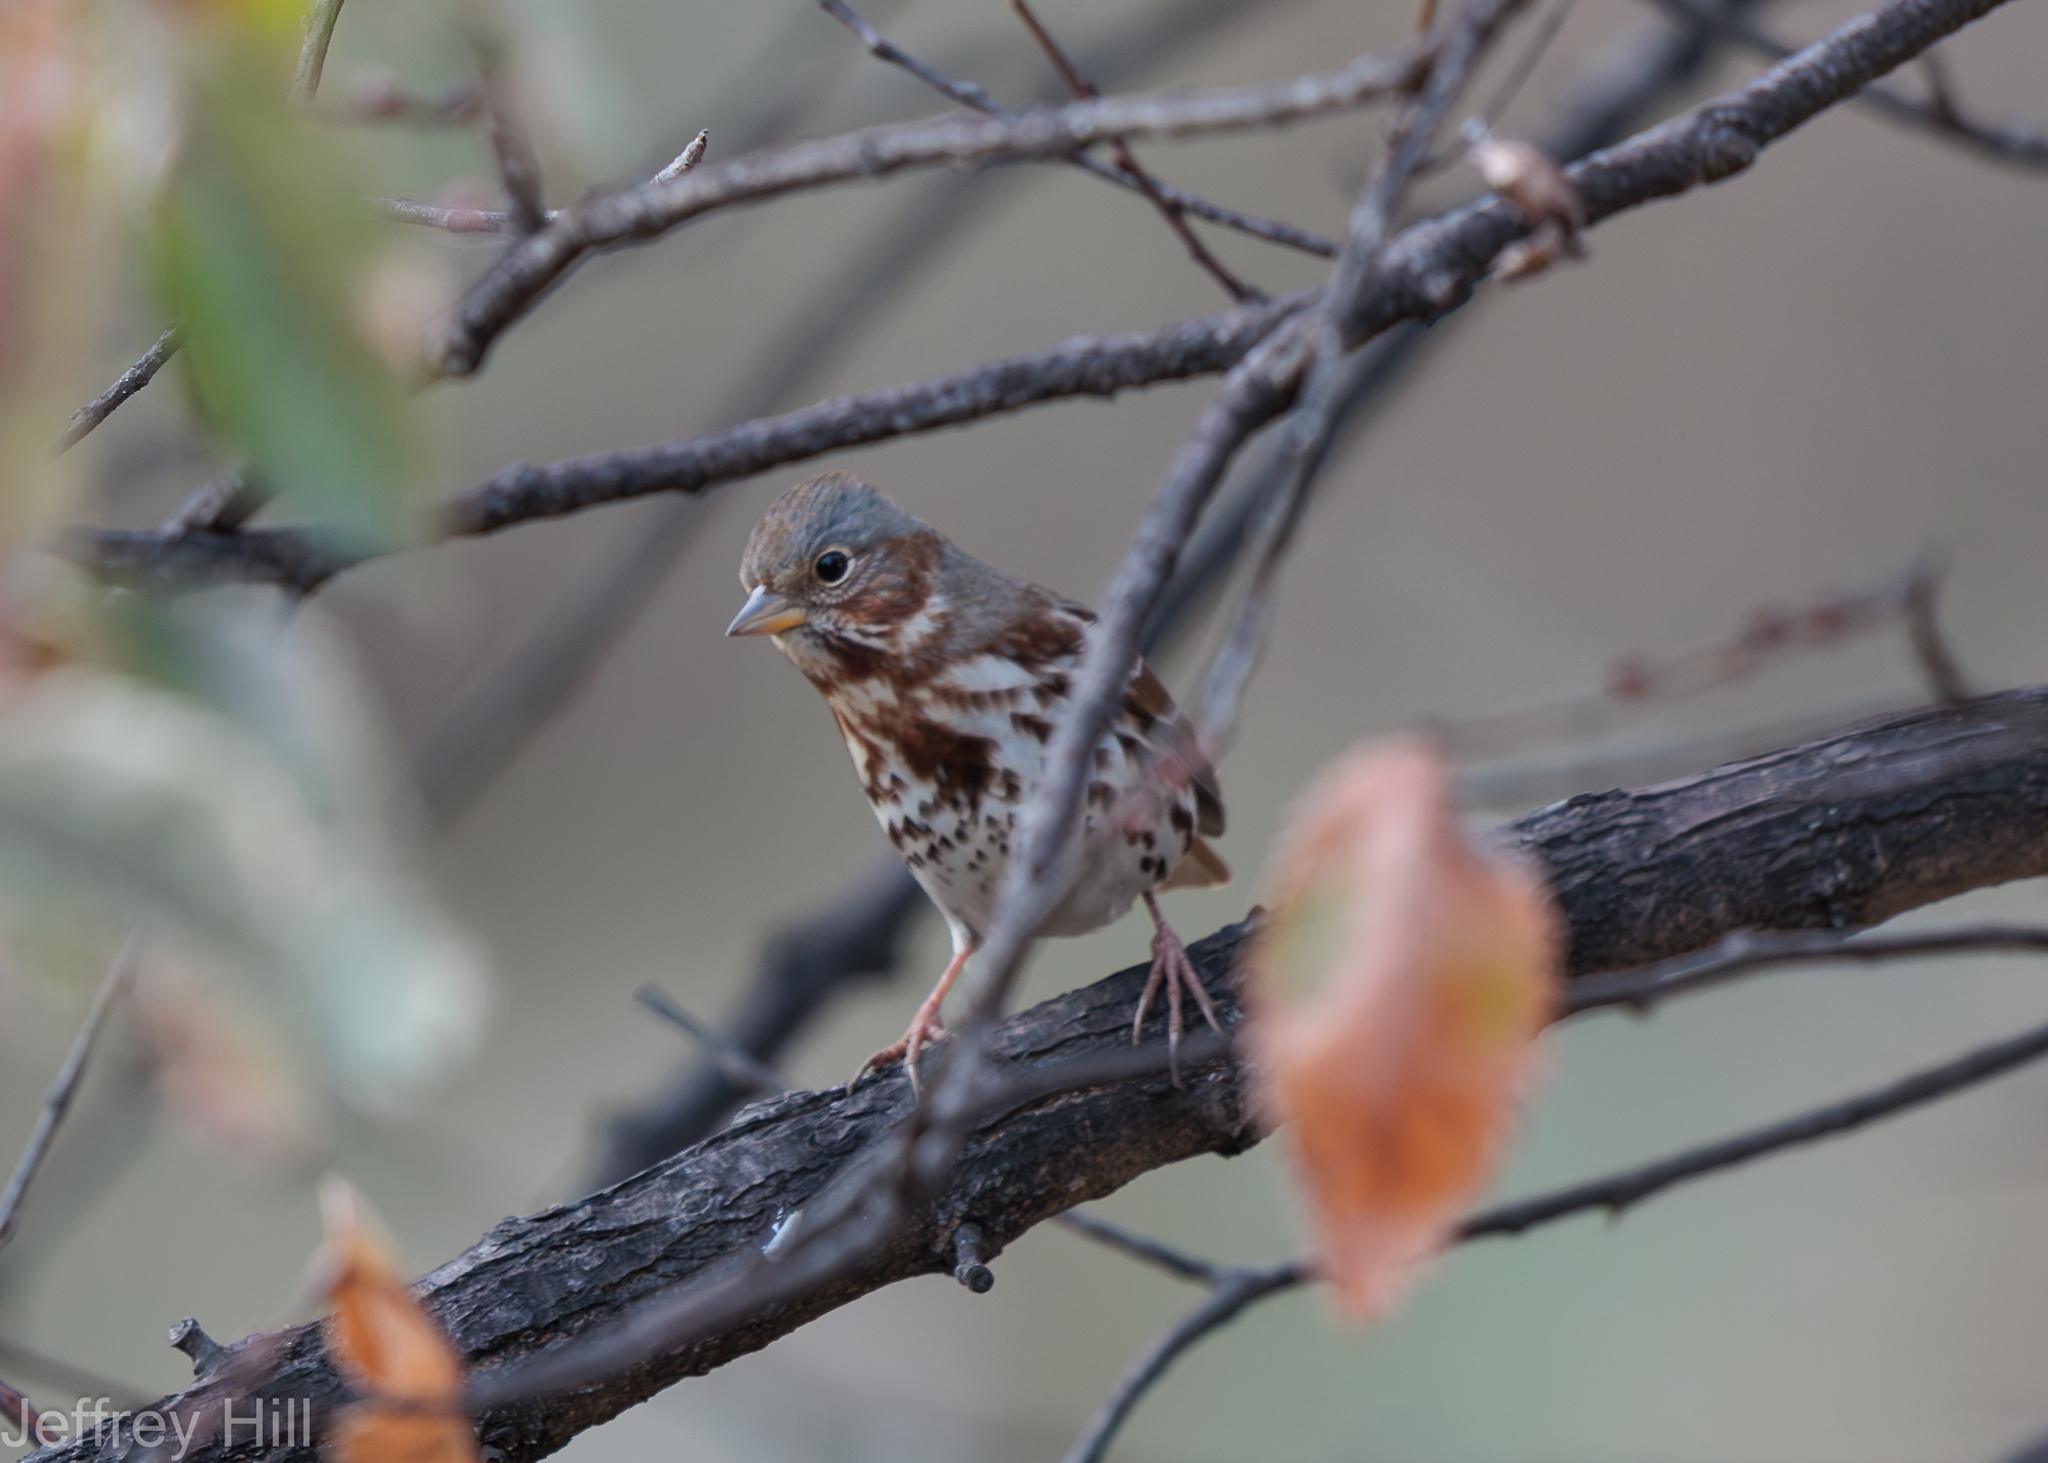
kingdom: Animalia
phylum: Chordata
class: Aves
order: Passeriformes
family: Passerellidae
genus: Passerella
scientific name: Passerella iliaca
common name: Fox sparrow
